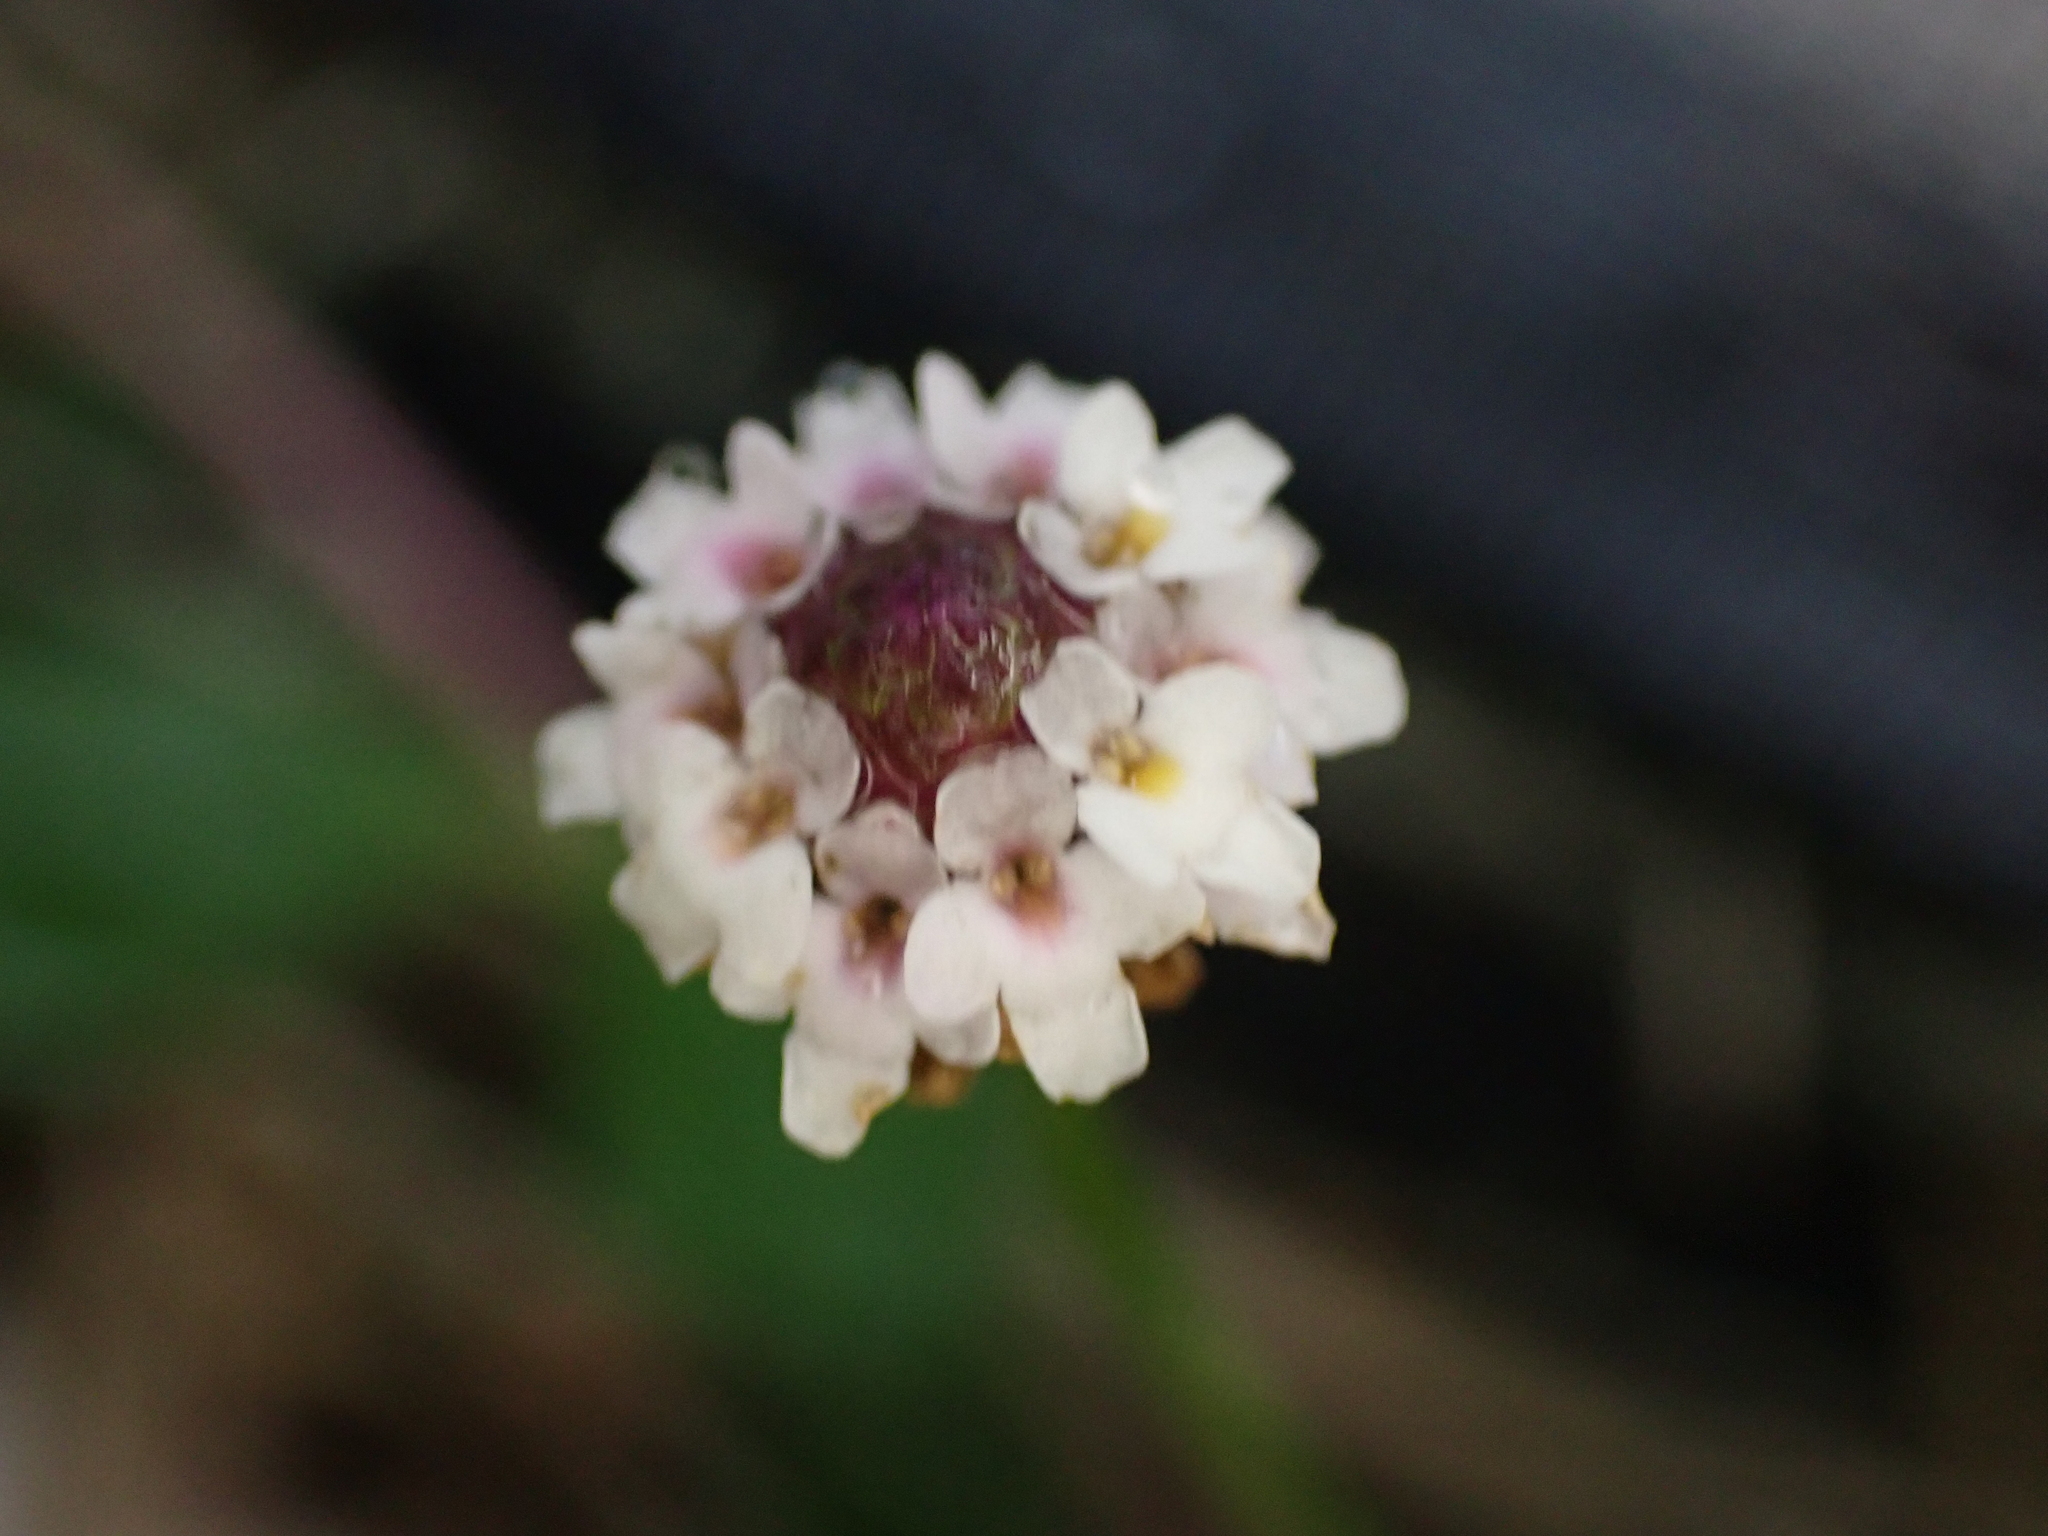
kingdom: Plantae
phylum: Tracheophyta
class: Magnoliopsida
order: Lamiales
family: Verbenaceae
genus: Phyla
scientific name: Phyla nodiflora
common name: Frogfruit
